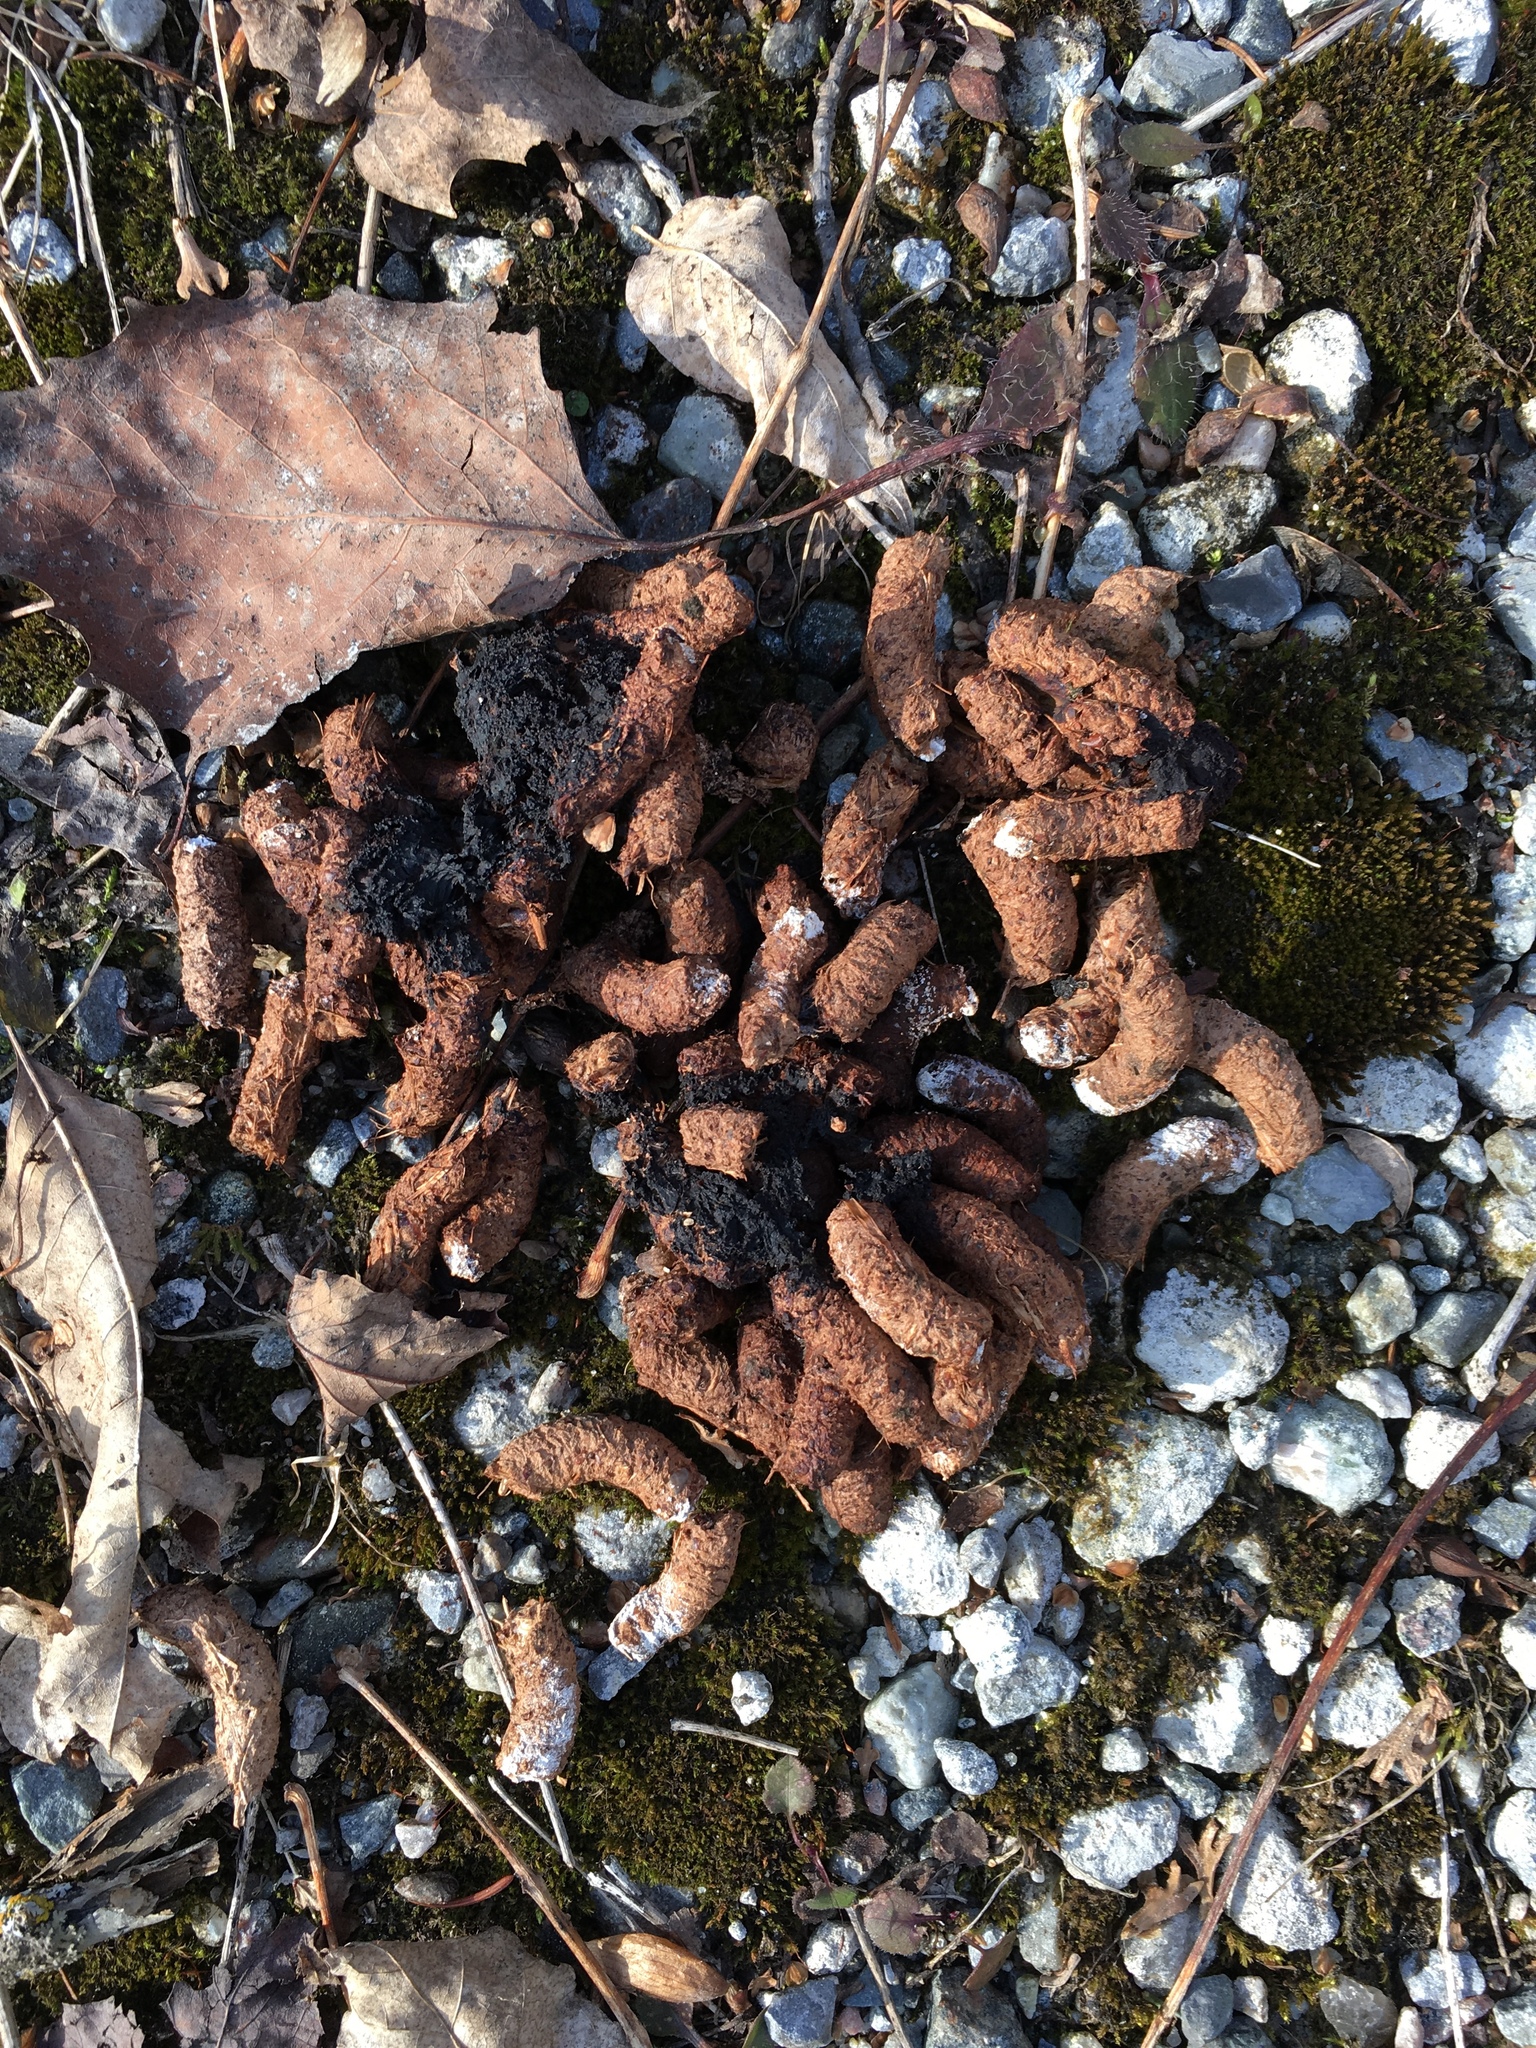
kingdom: Animalia
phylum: Chordata
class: Mammalia
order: Rodentia
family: Erethizontidae
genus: Erethizon
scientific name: Erethizon dorsatus
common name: North american porcupine
